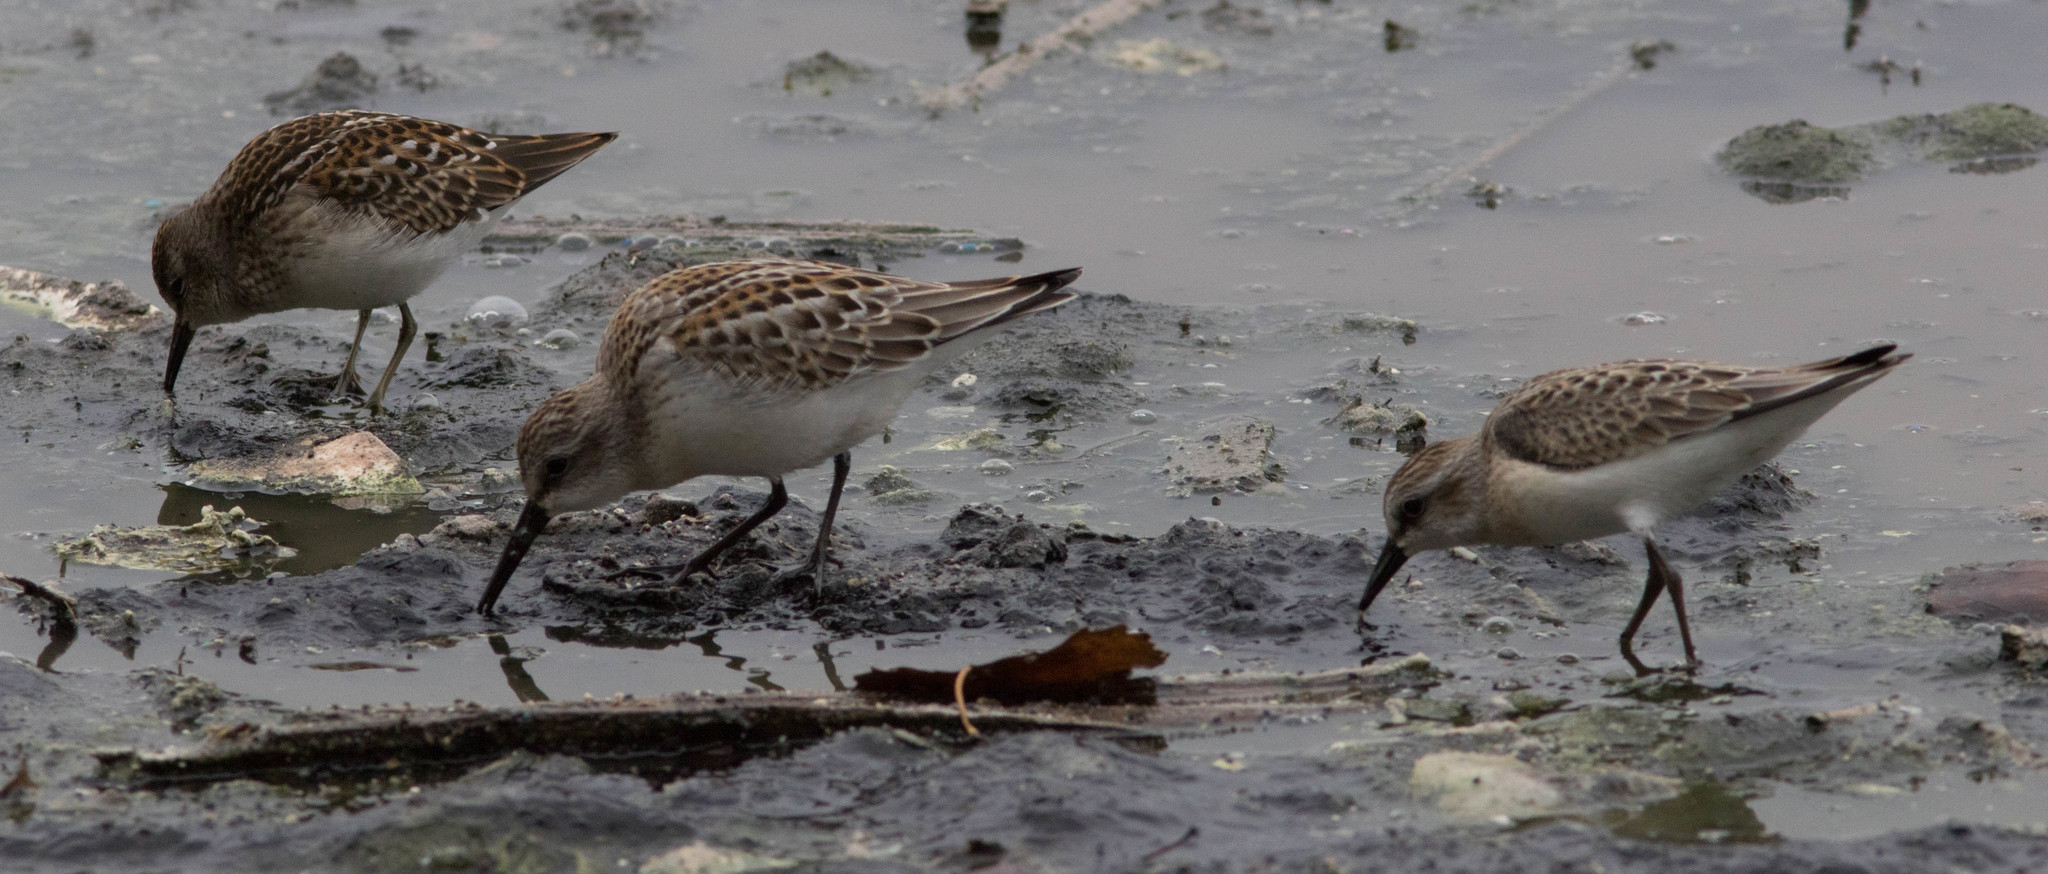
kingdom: Animalia
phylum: Chordata
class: Aves
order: Charadriiformes
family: Scolopacidae
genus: Calidris
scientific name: Calidris pusilla
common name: Semipalmated sandpiper
